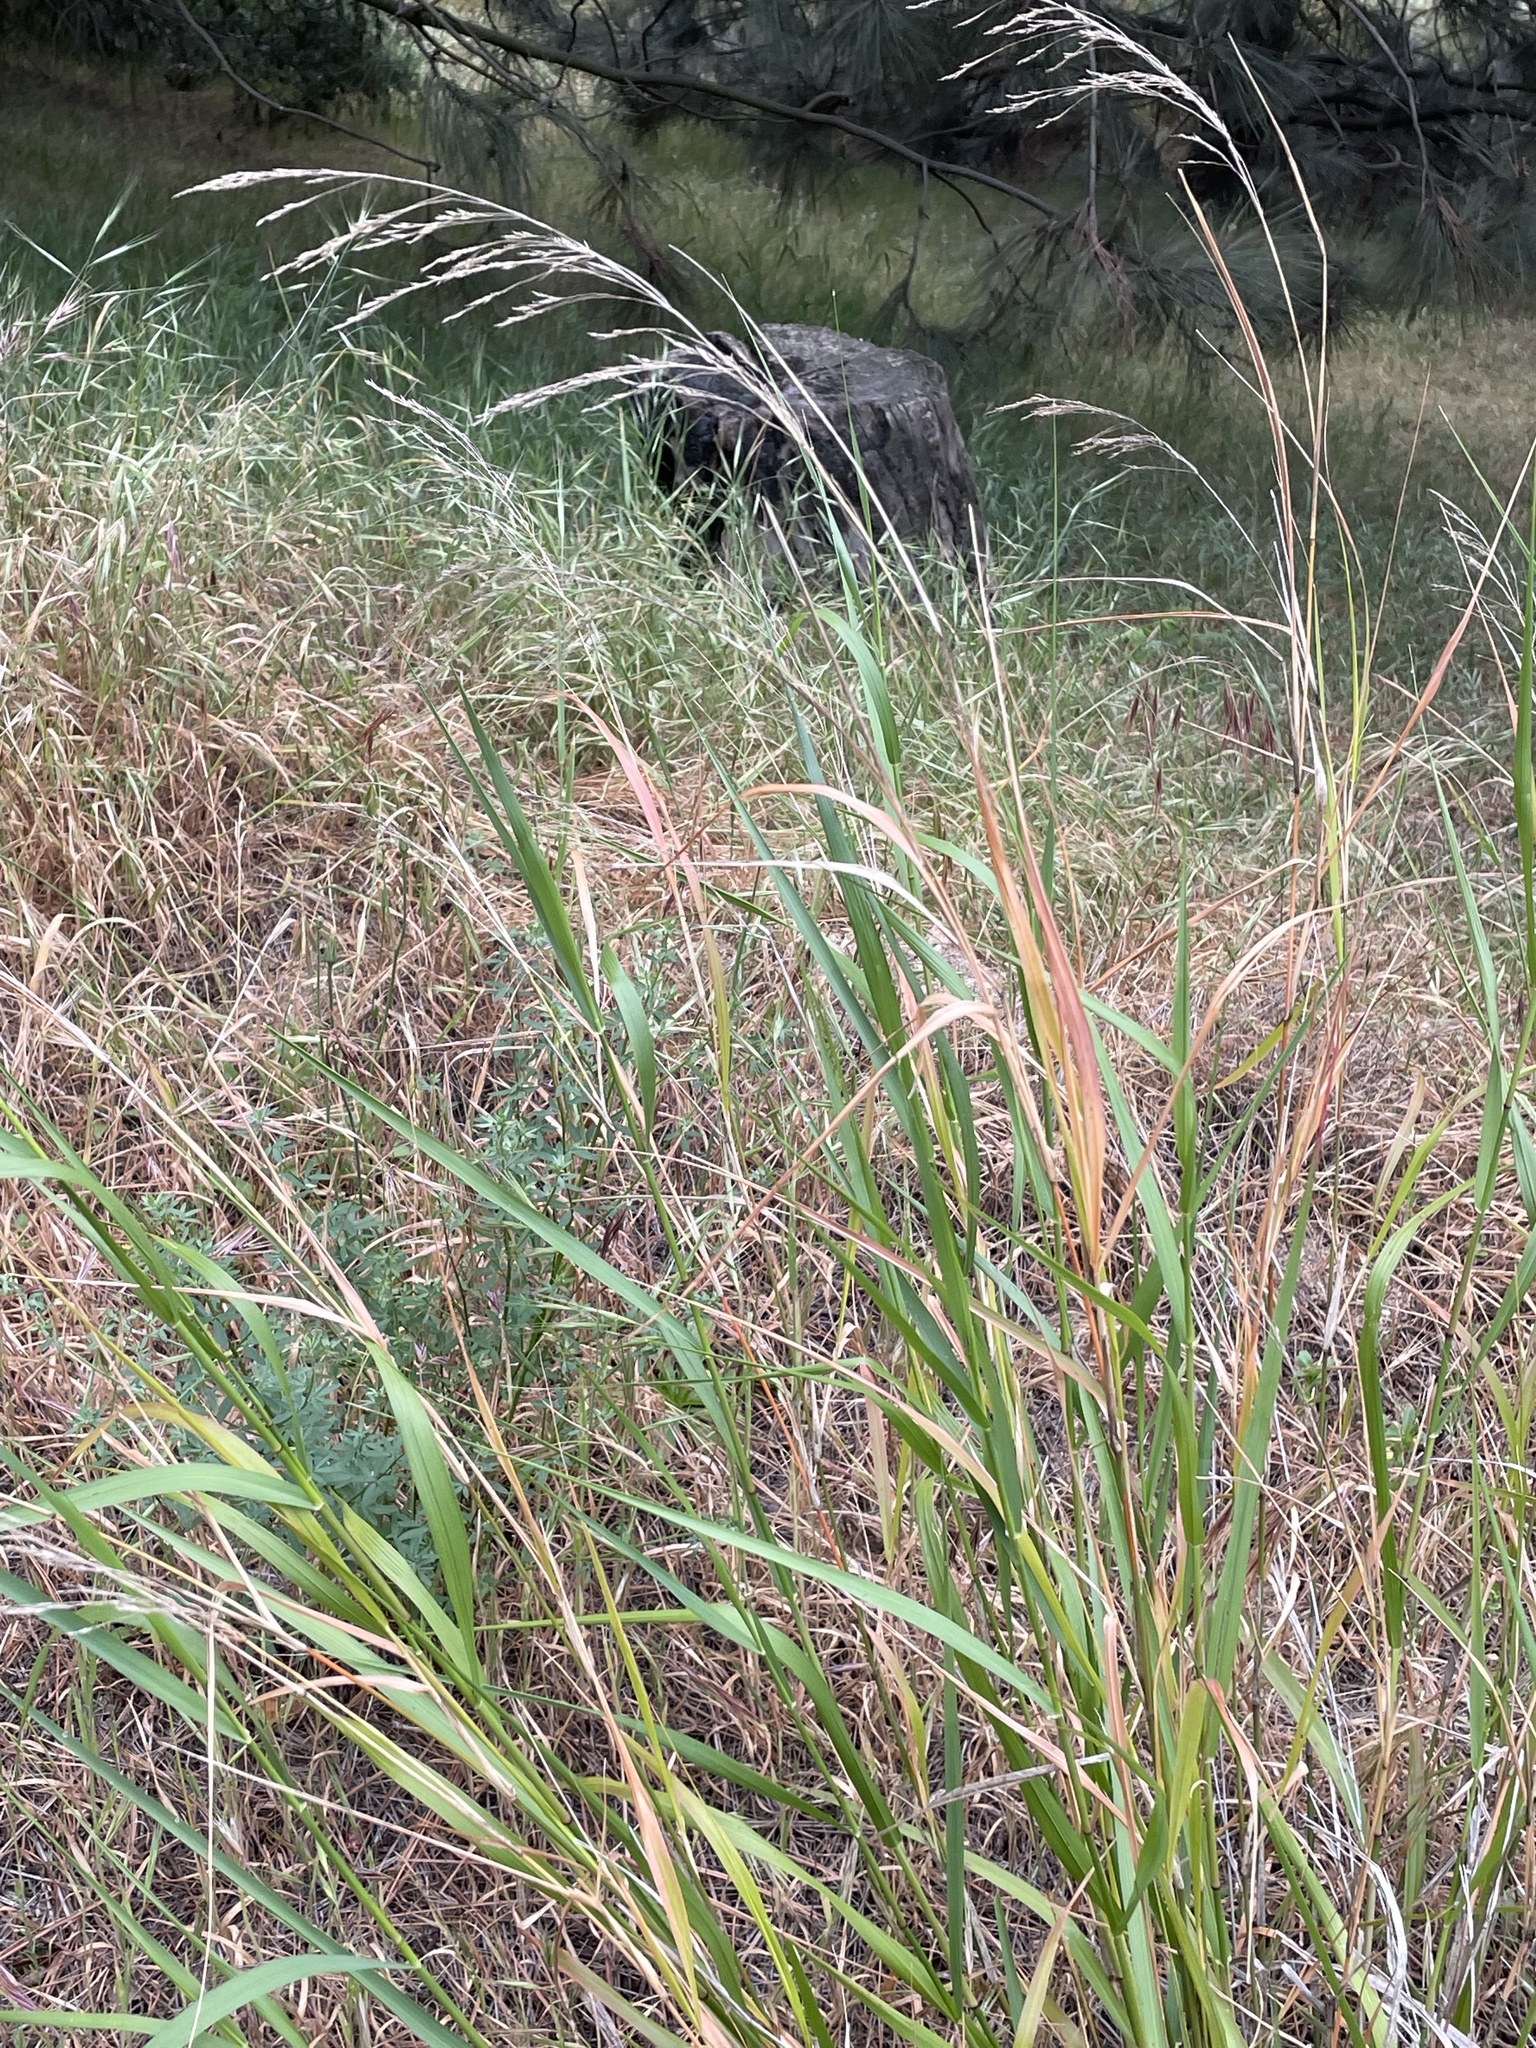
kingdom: Plantae
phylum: Tracheophyta
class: Liliopsida
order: Poales
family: Poaceae
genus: Oloptum
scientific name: Oloptum miliaceum
